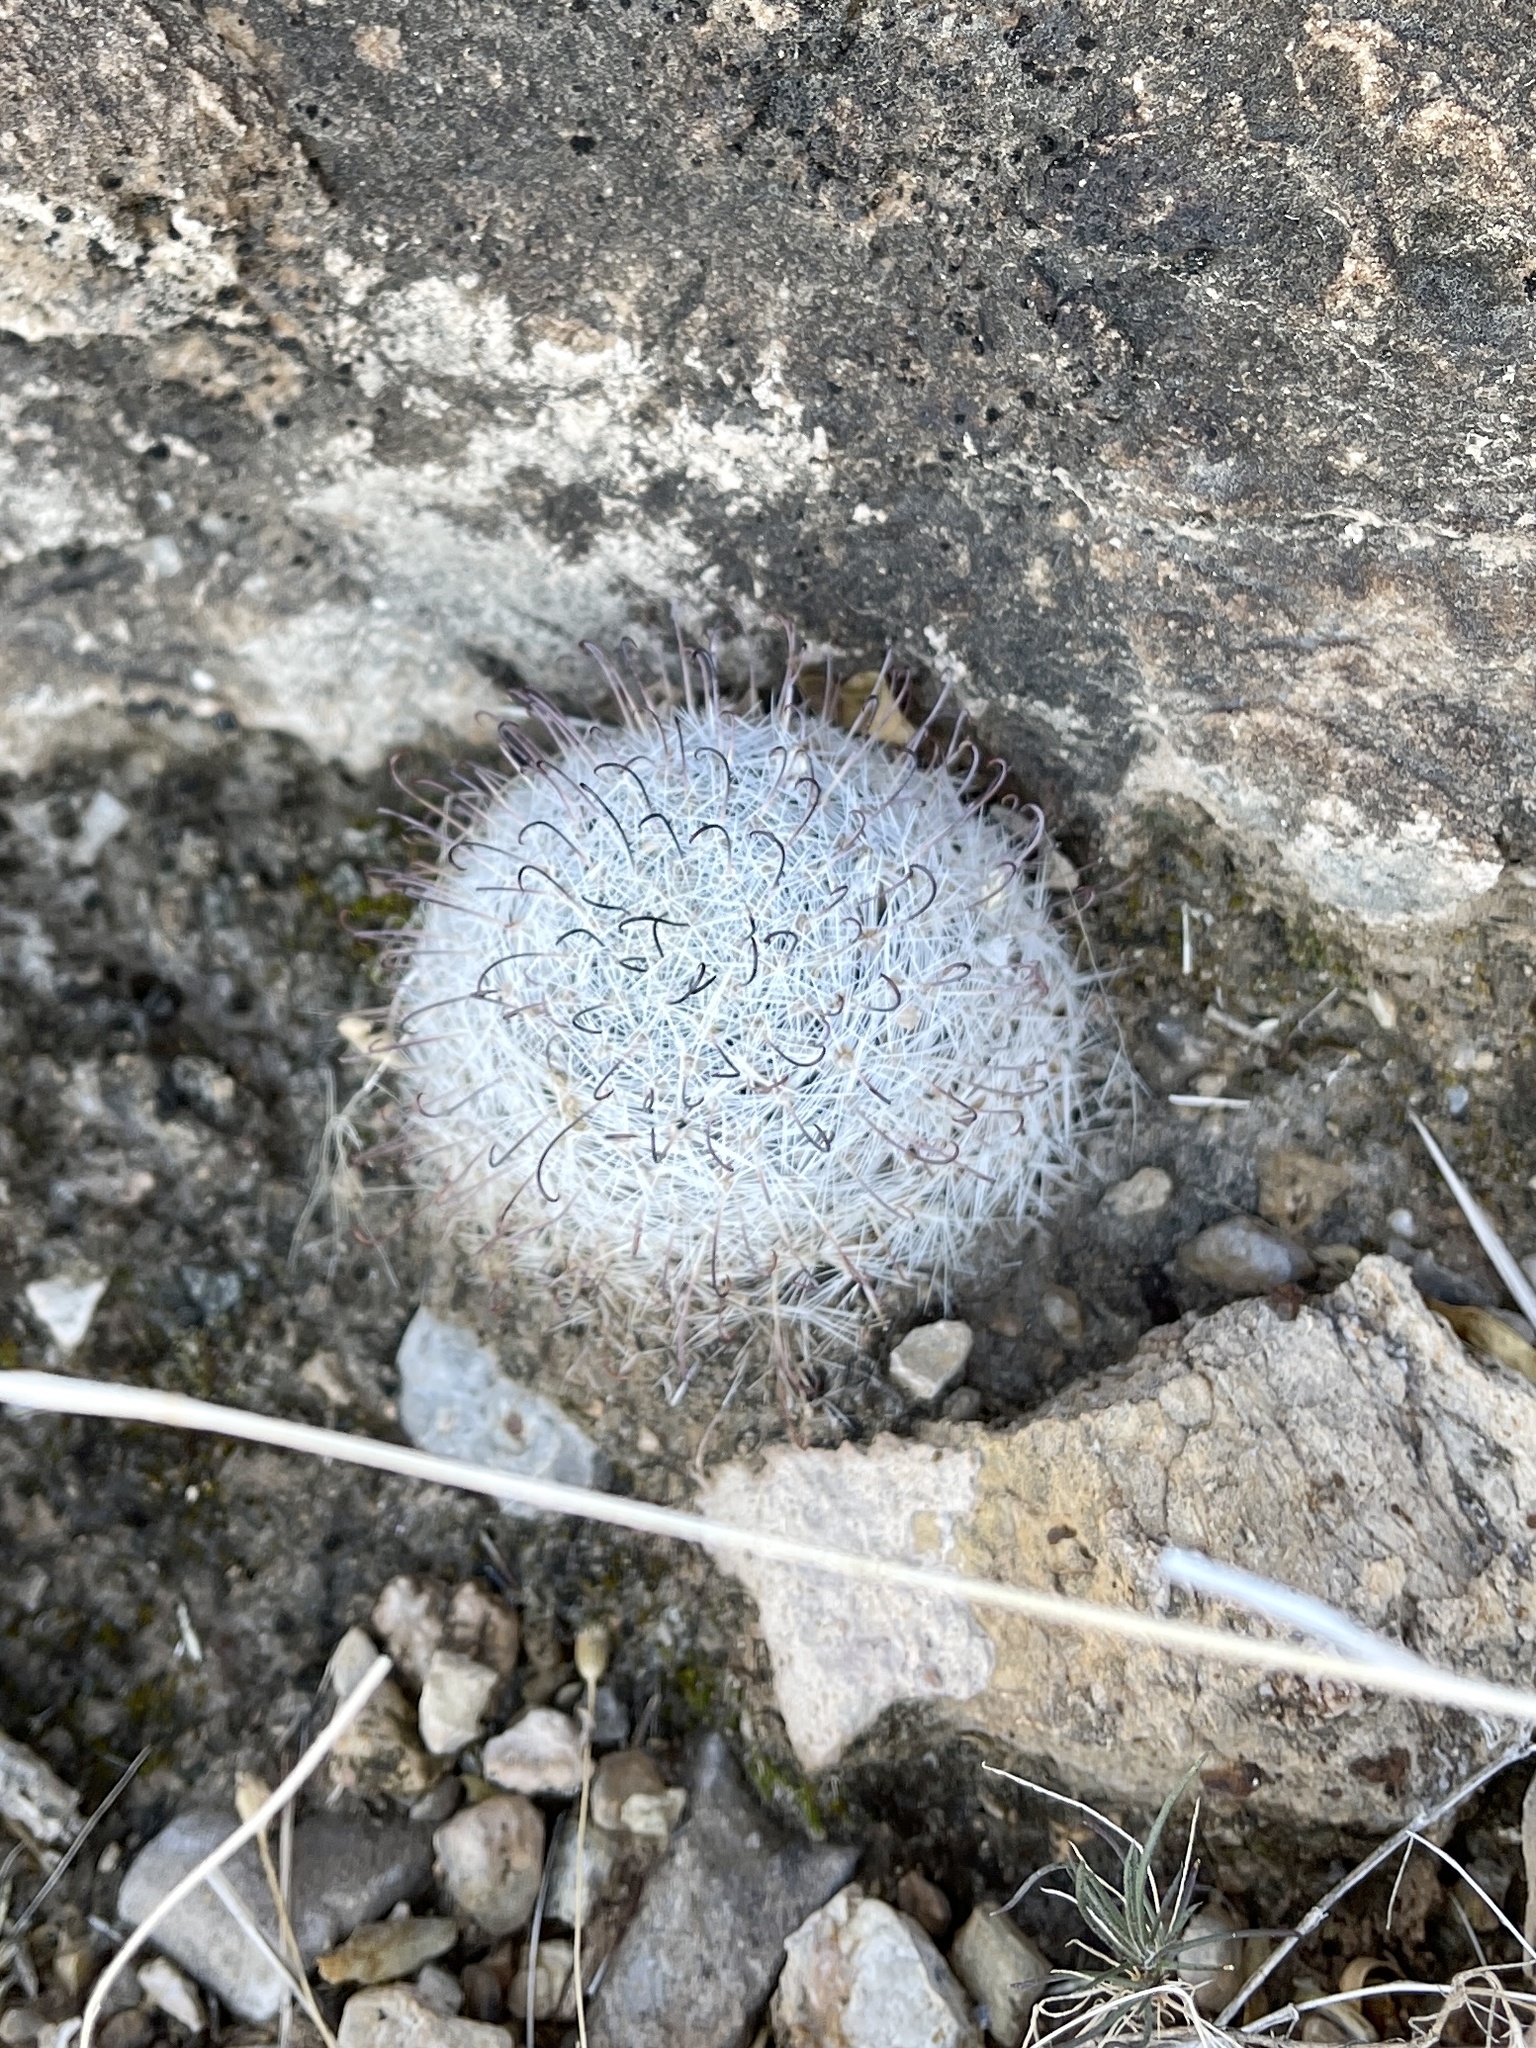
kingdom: Plantae
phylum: Tracheophyta
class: Magnoliopsida
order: Caryophyllales
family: Cactaceae
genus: Cochemiea
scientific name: Cochemiea grahamii
